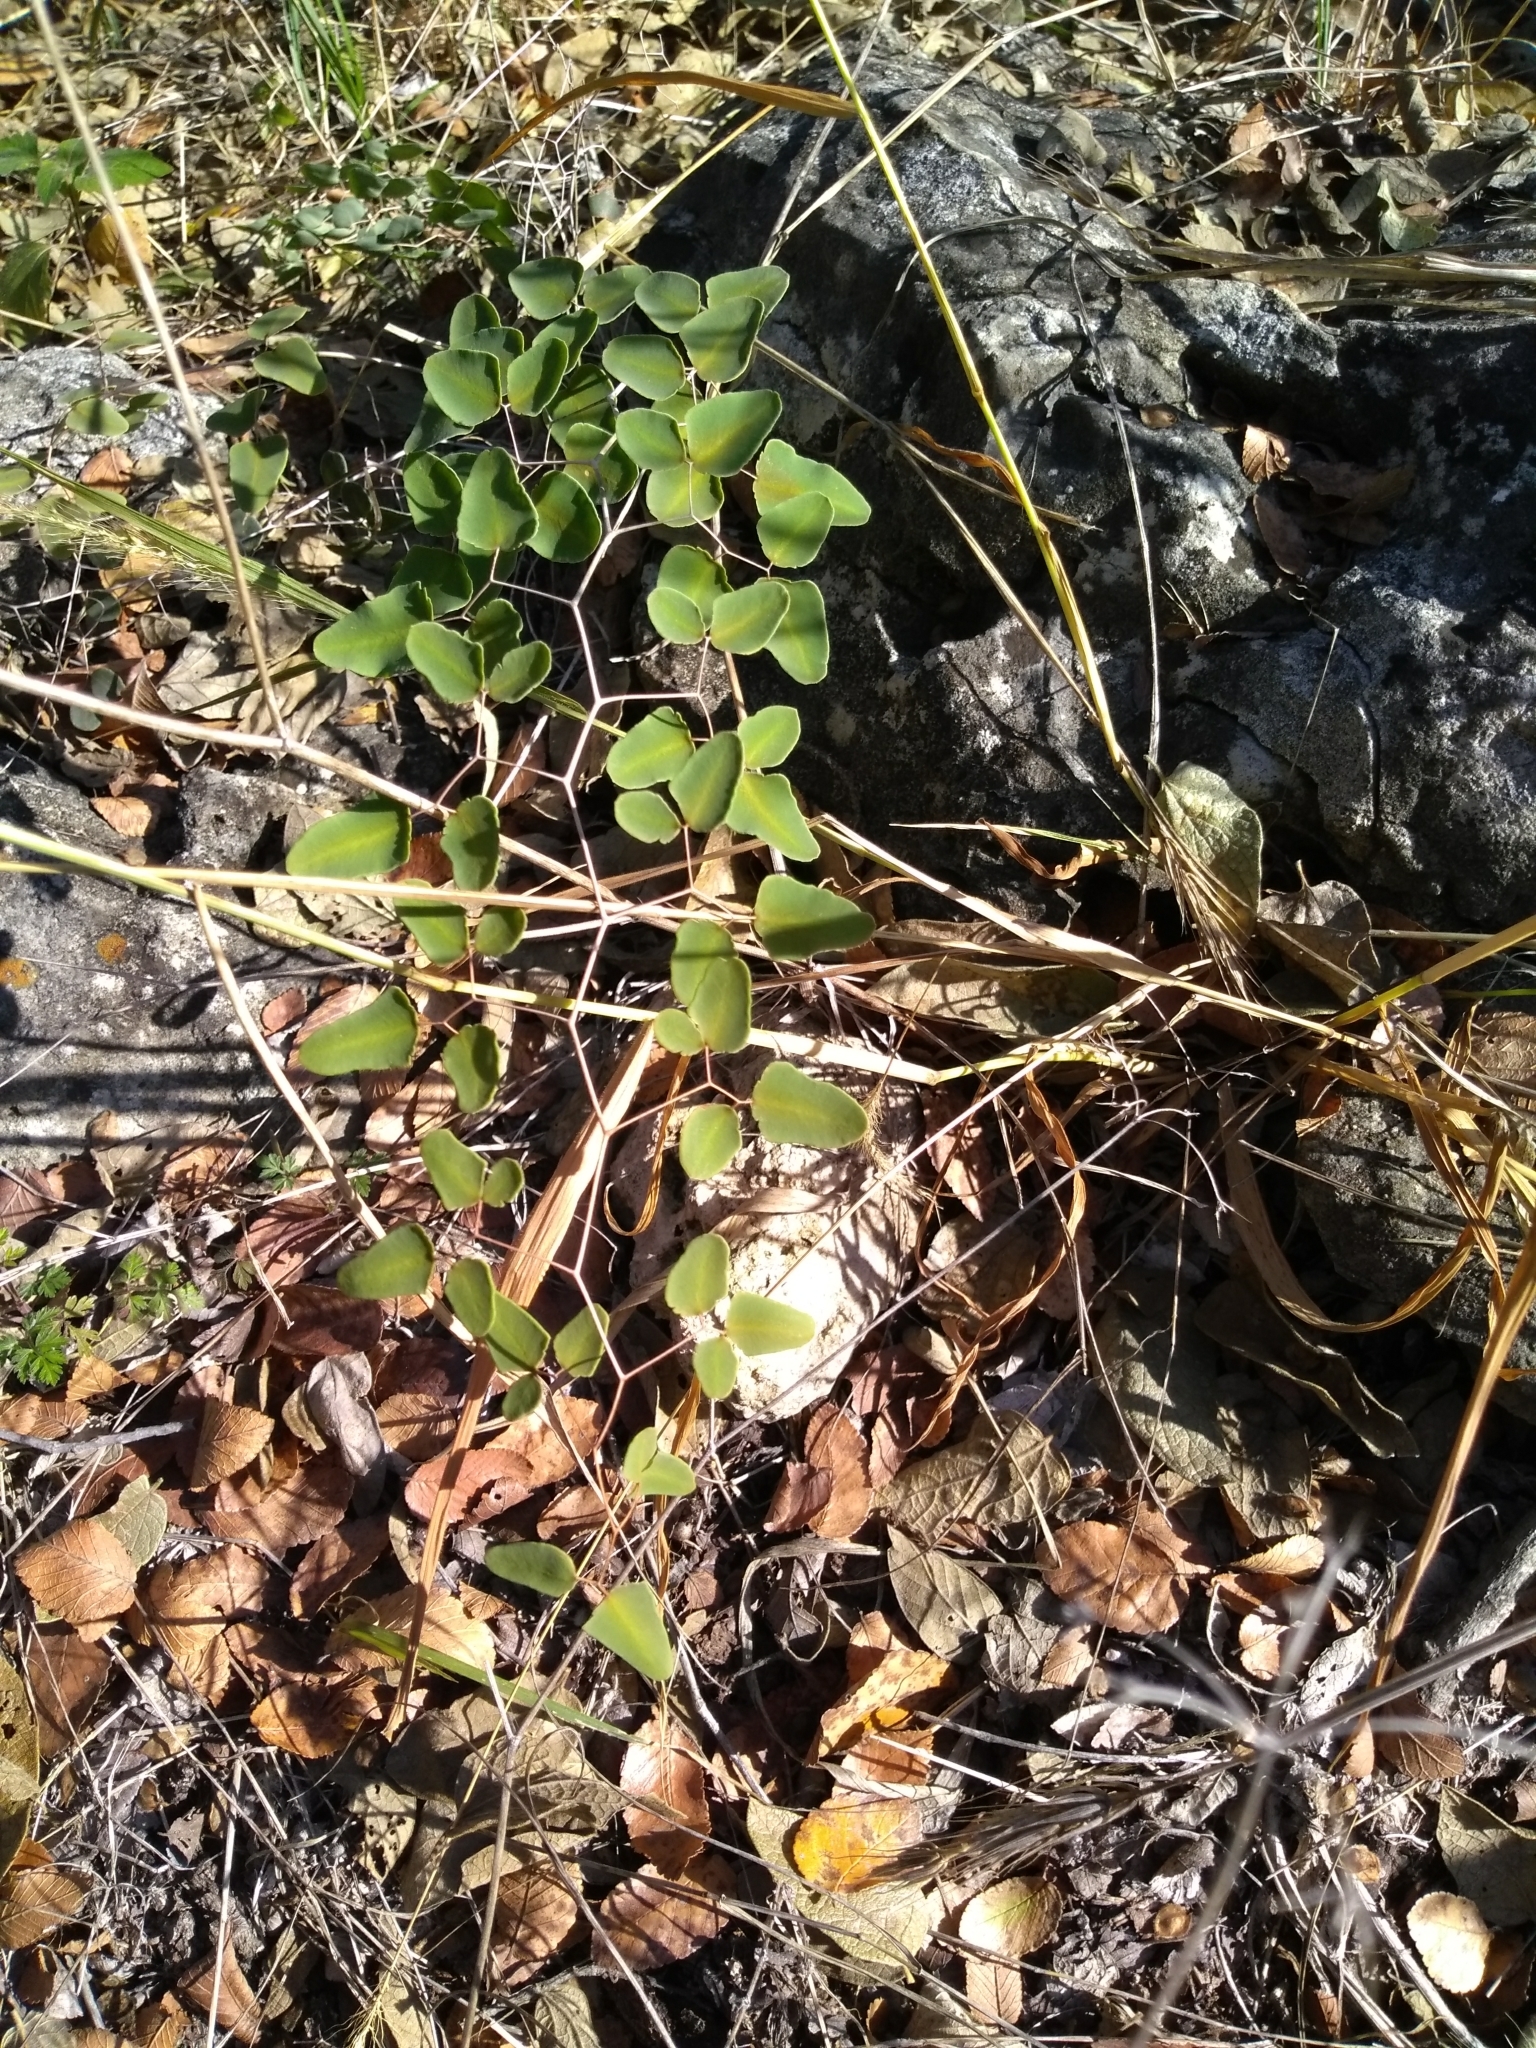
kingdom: Plantae
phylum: Tracheophyta
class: Polypodiopsida
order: Polypodiales
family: Pteridaceae
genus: Pellaea
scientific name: Pellaea ovata
